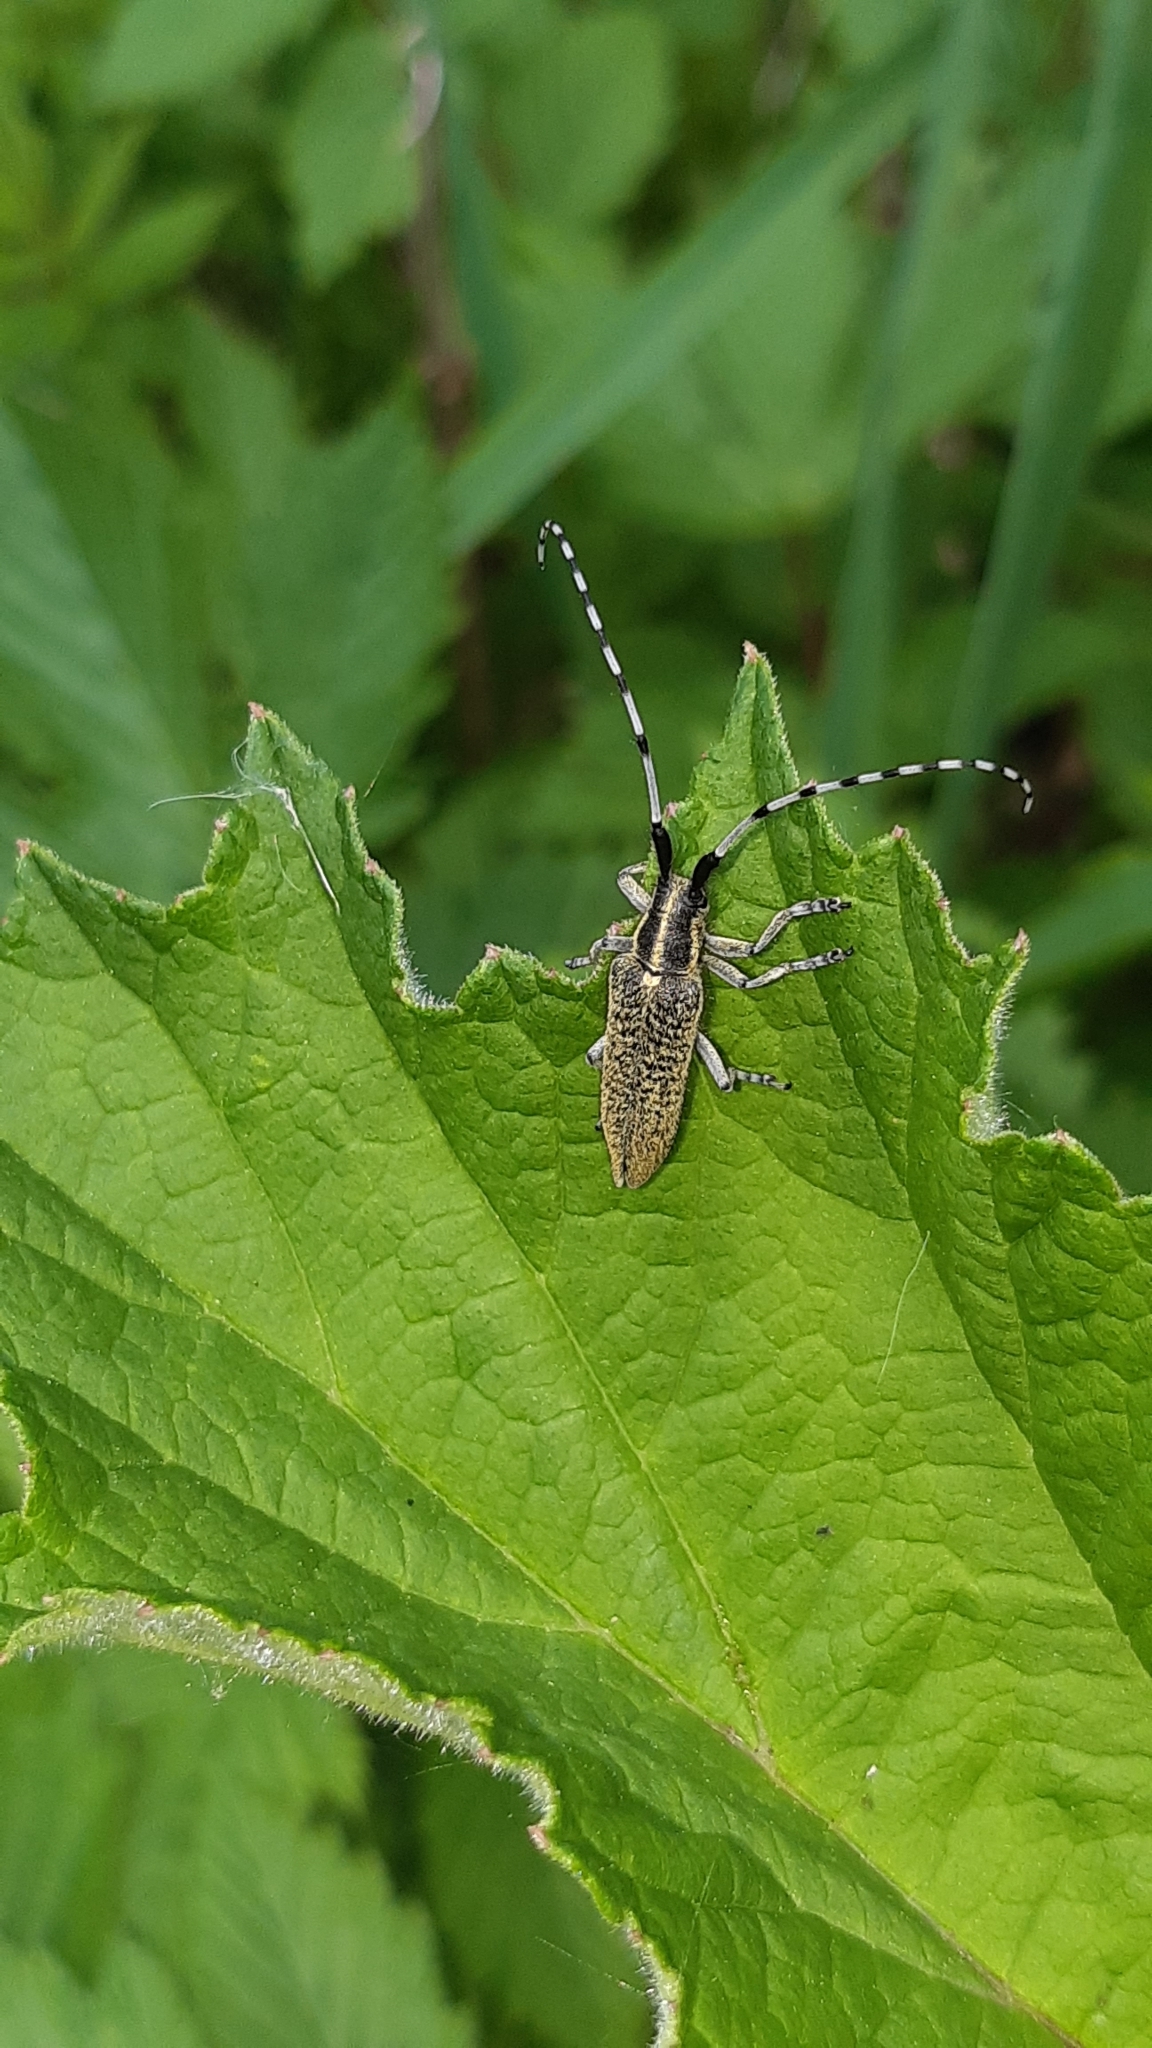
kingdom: Animalia
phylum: Arthropoda
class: Insecta
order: Coleoptera
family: Cerambycidae
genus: Agapanthia
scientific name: Agapanthia villosoviridescens
